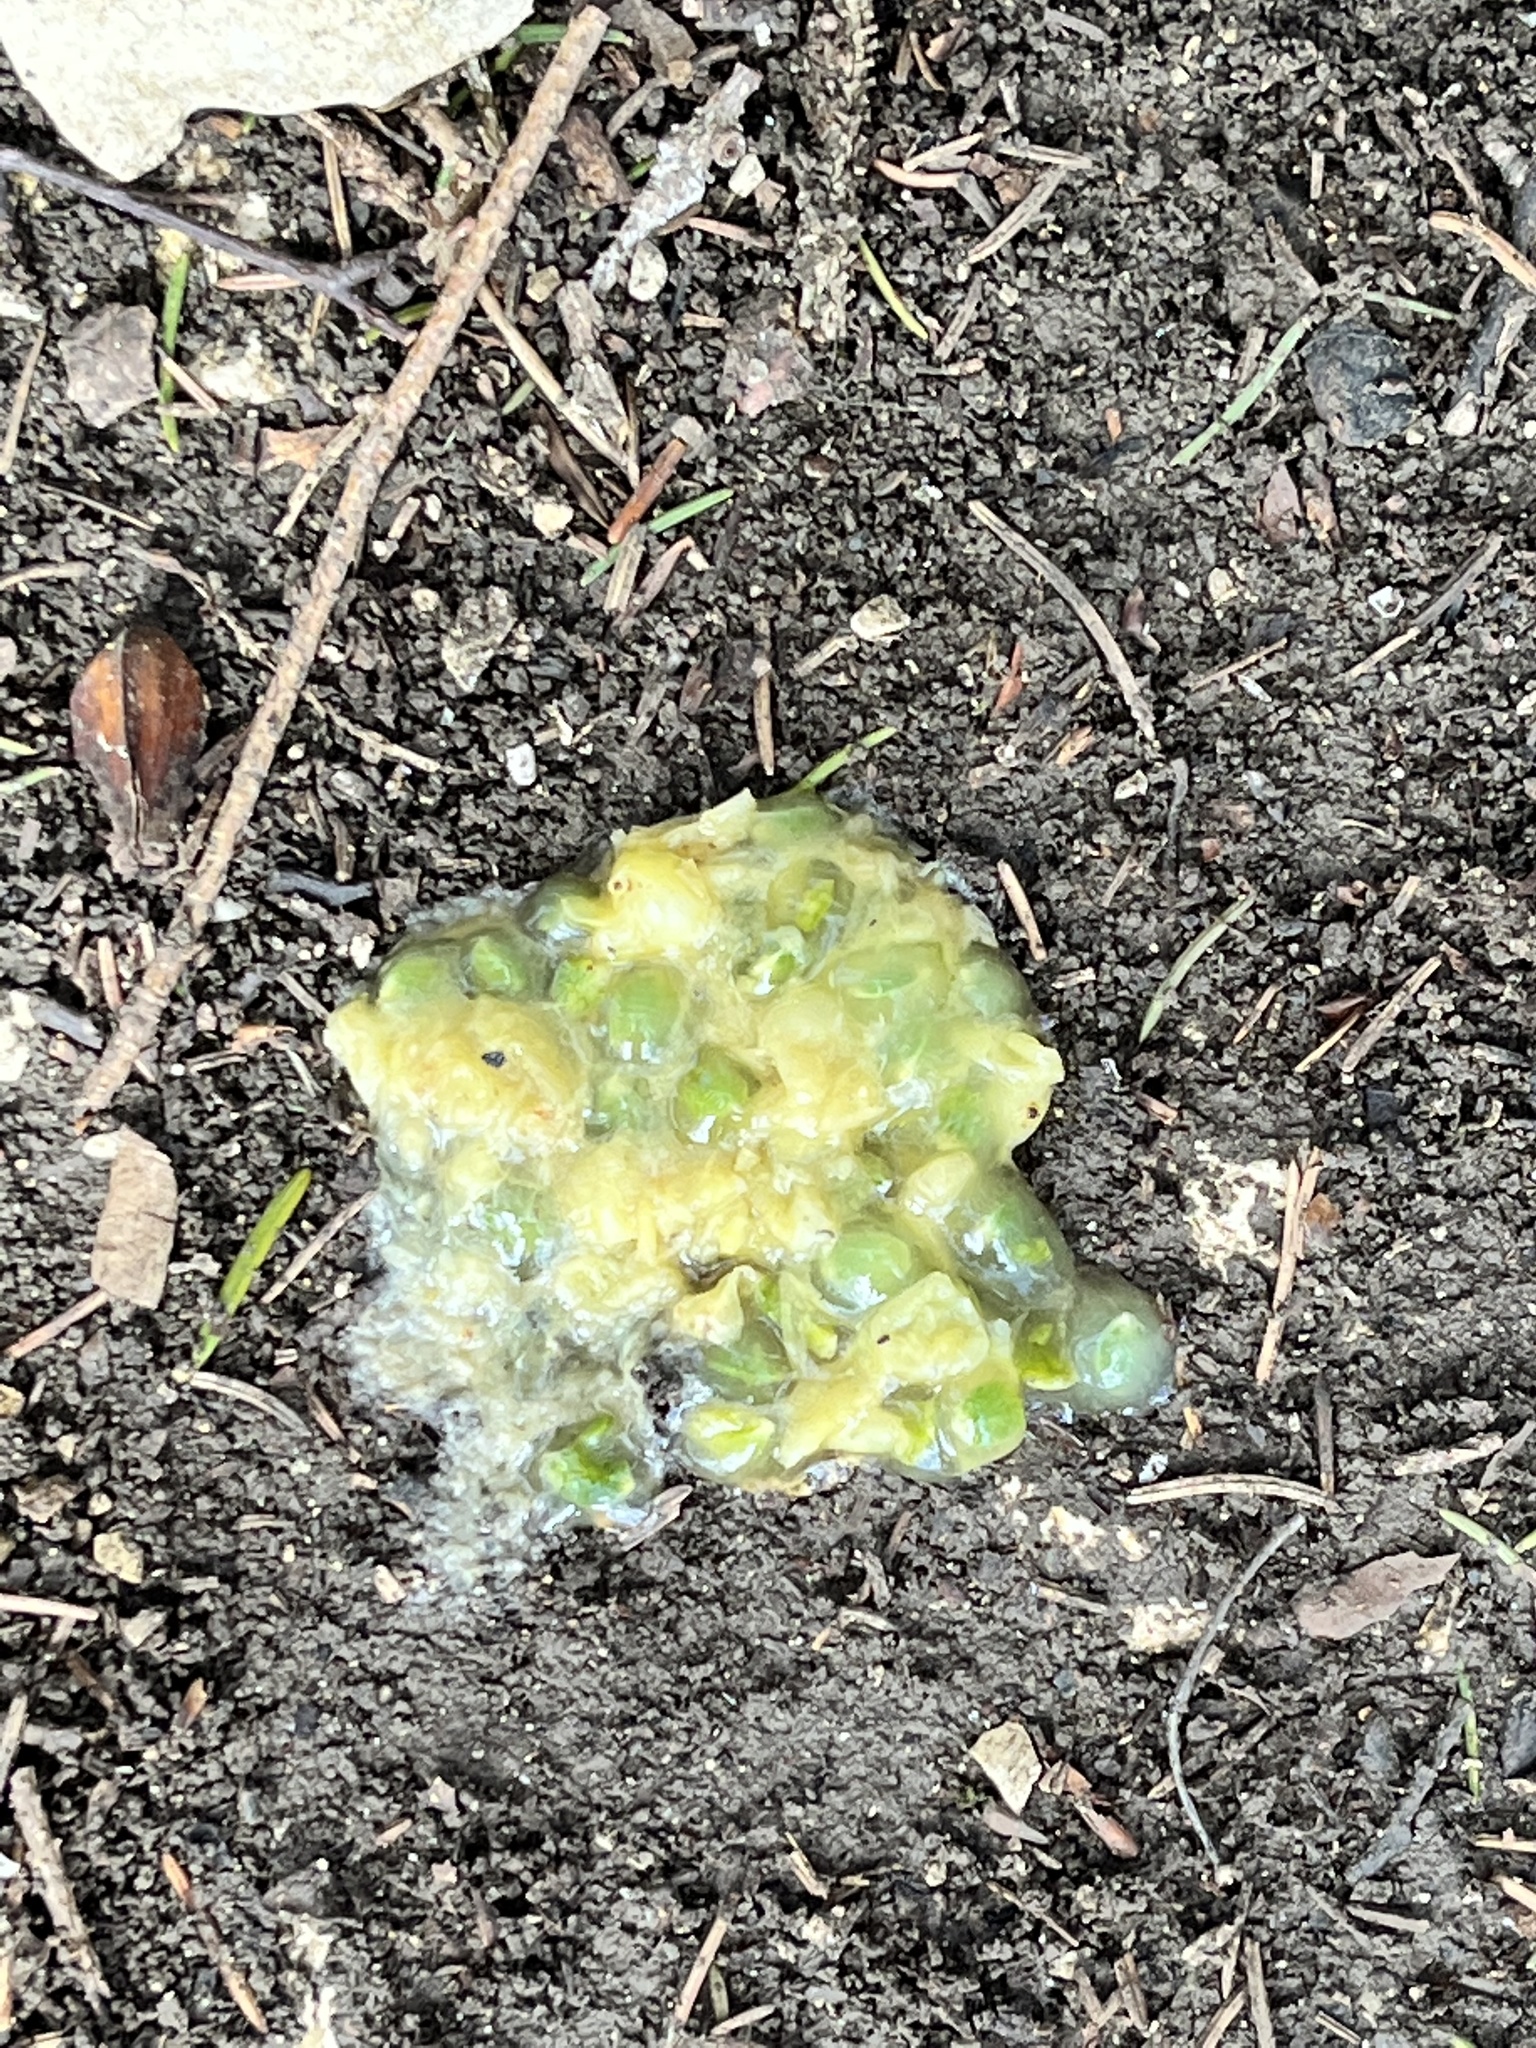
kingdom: Plantae
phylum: Tracheophyta
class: Magnoliopsida
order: Santalales
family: Viscaceae
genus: Viscum
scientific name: Viscum album
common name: Mistletoe
